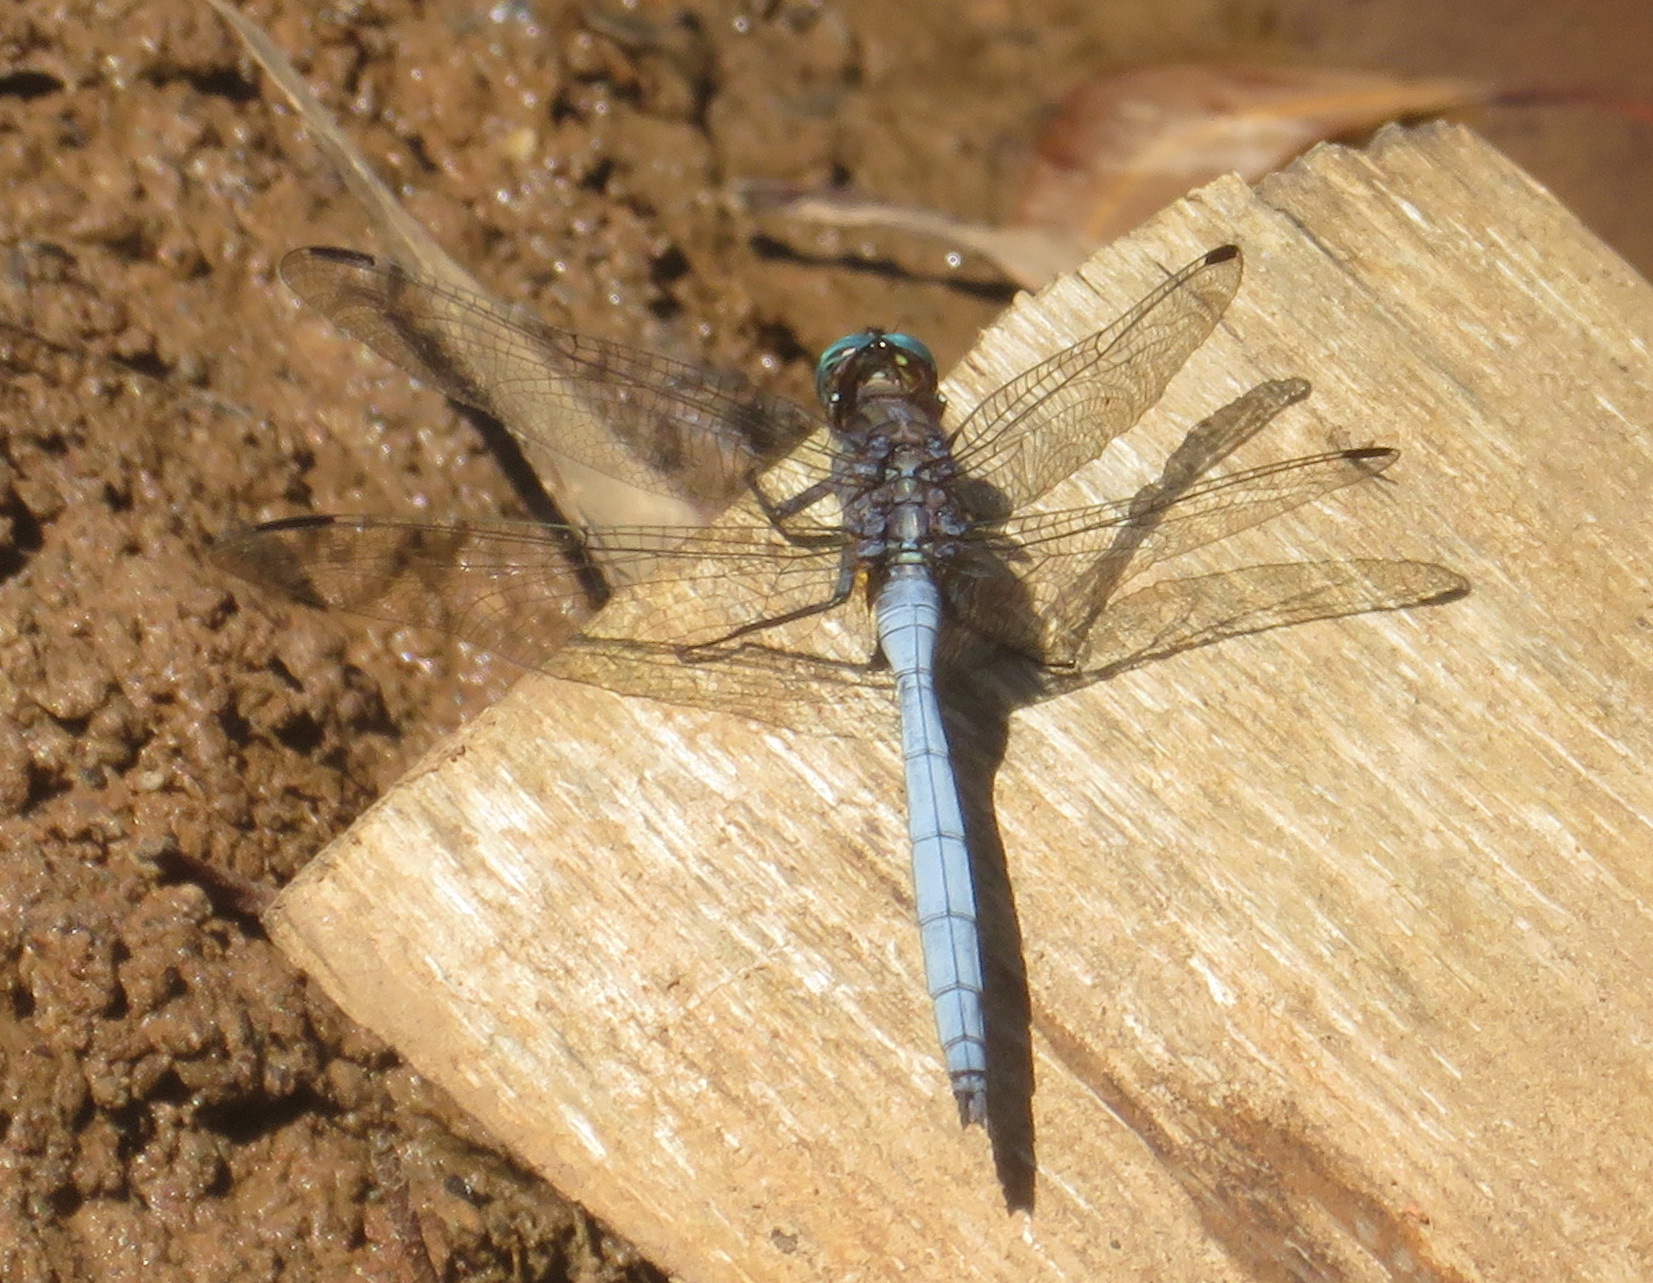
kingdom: Animalia
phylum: Arthropoda
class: Insecta
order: Odonata
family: Libellulidae
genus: Orthetrum
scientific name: Orthetrum julia
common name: Julia skimmer
